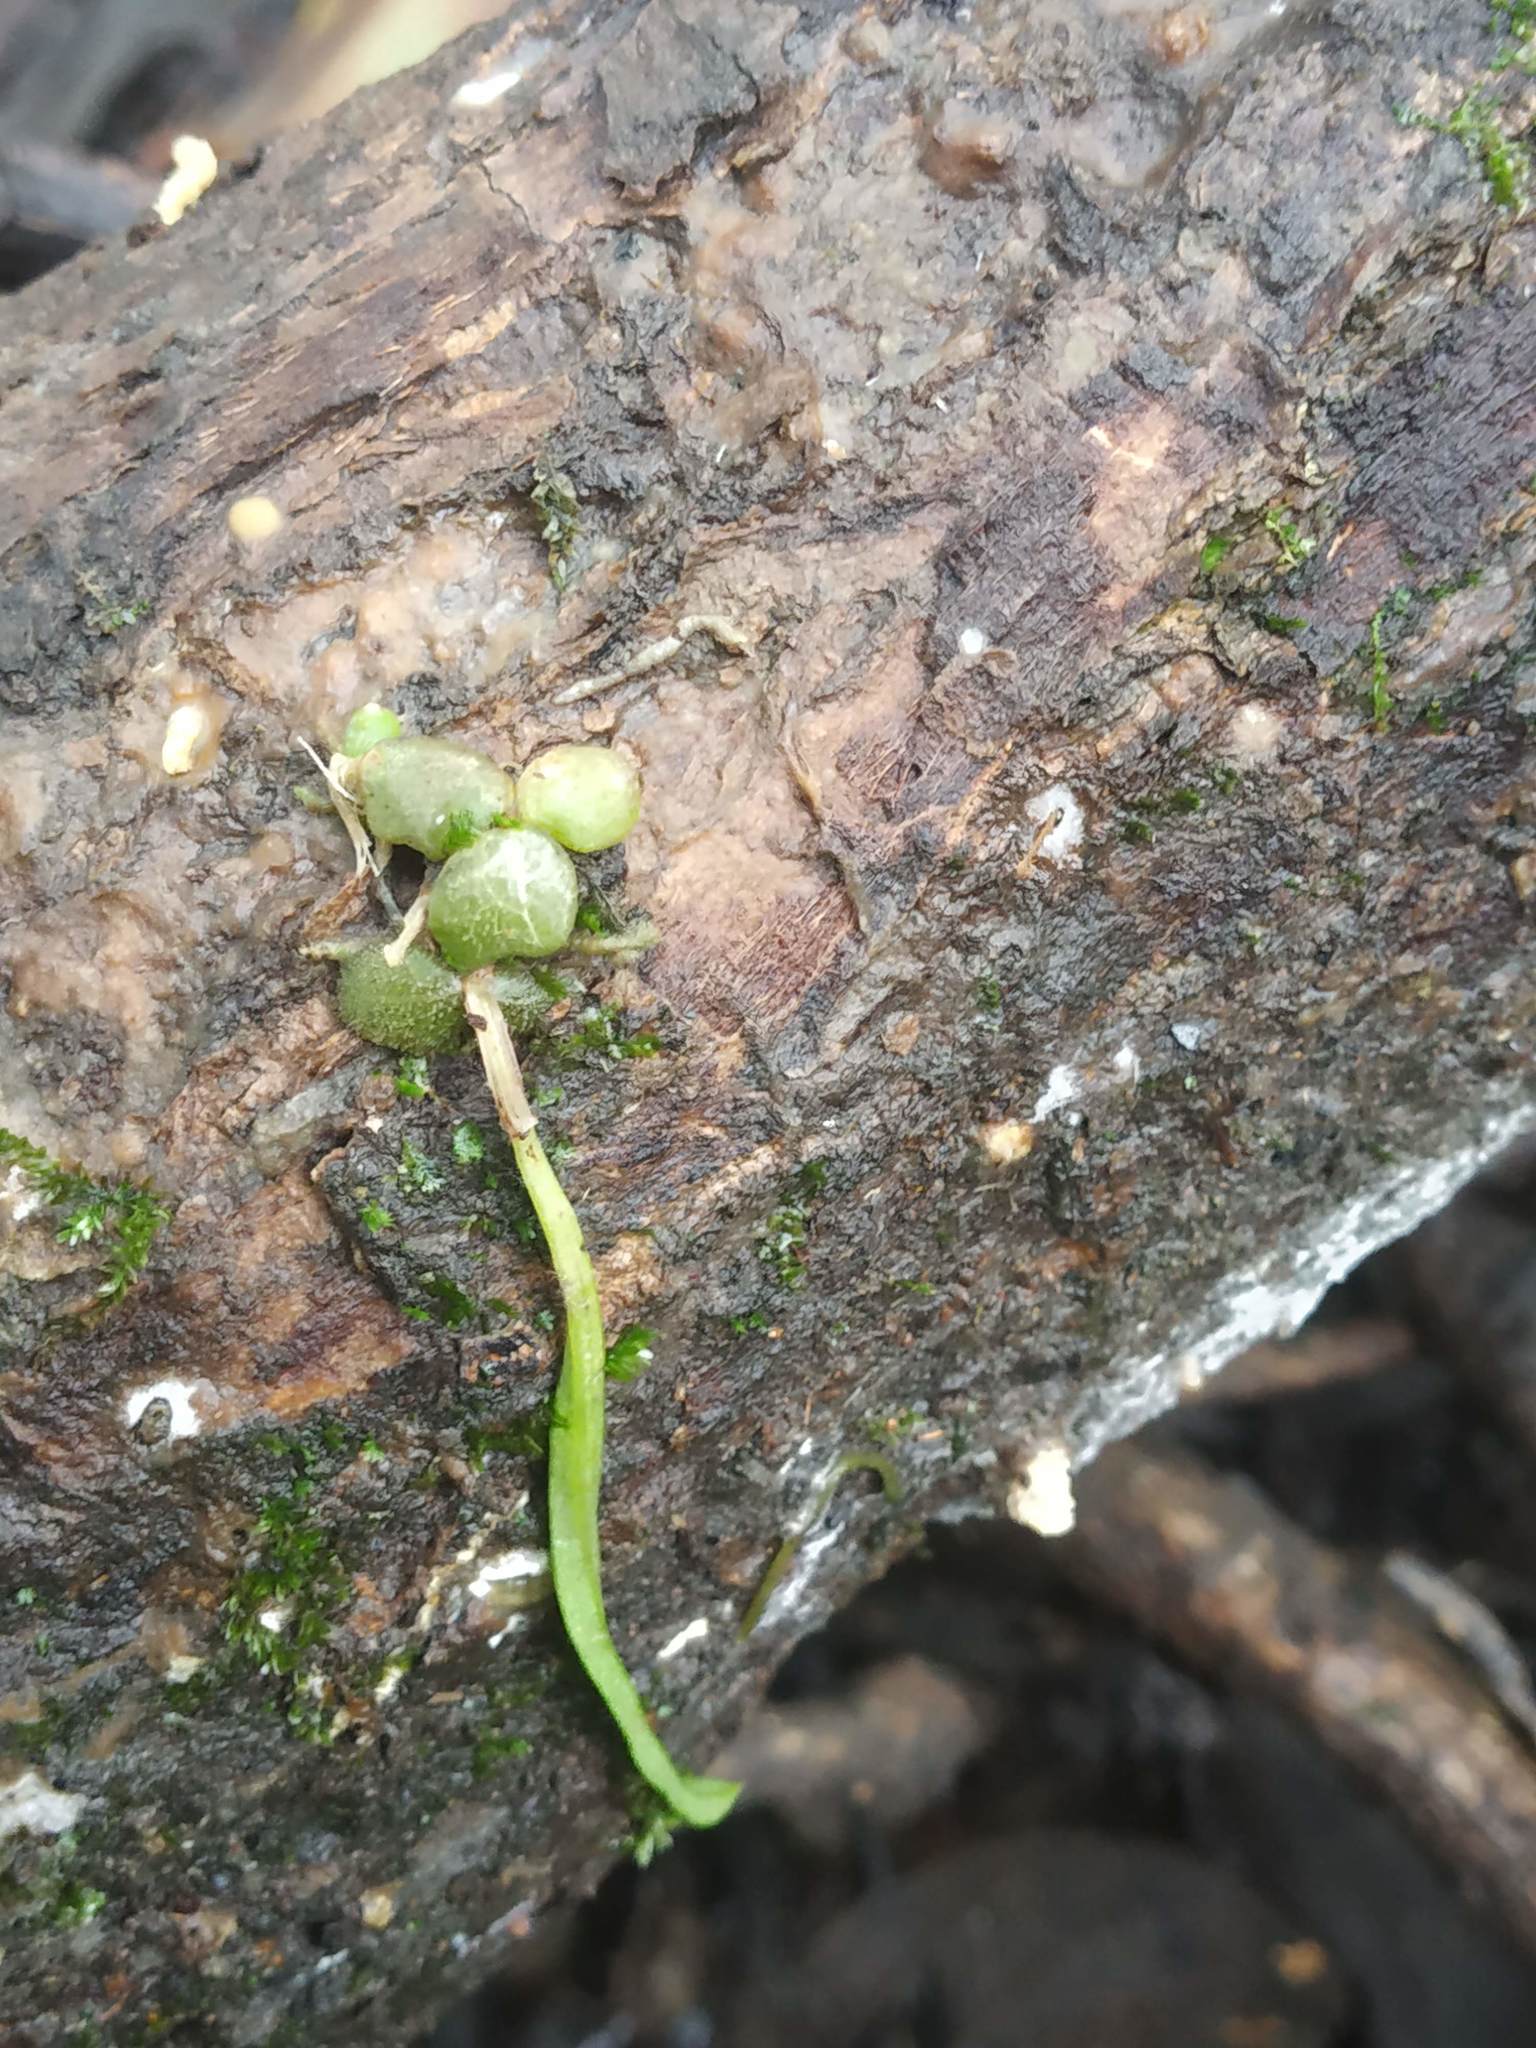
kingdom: Plantae
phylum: Tracheophyta
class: Liliopsida
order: Asparagales
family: Orchidaceae
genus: Porpax
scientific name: Porpax microchilos
